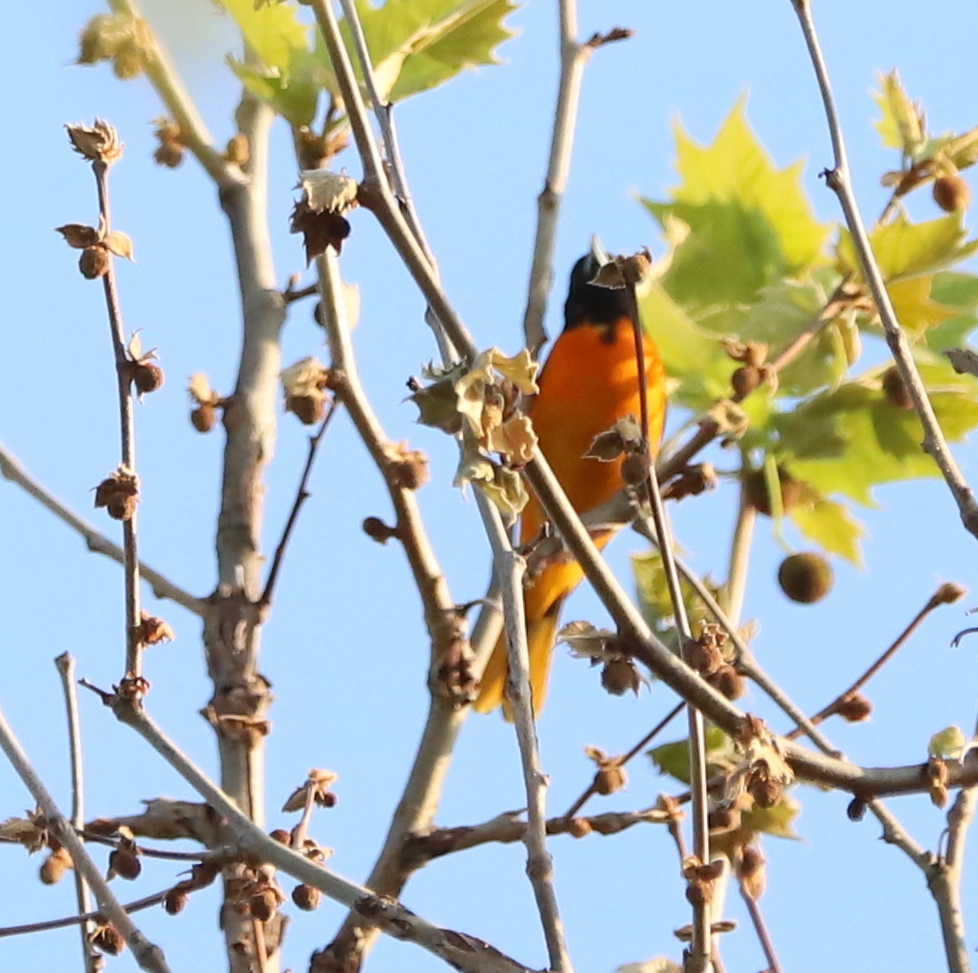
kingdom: Animalia
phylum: Chordata
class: Aves
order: Passeriformes
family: Icteridae
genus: Icterus
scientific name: Icterus galbula
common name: Baltimore oriole
